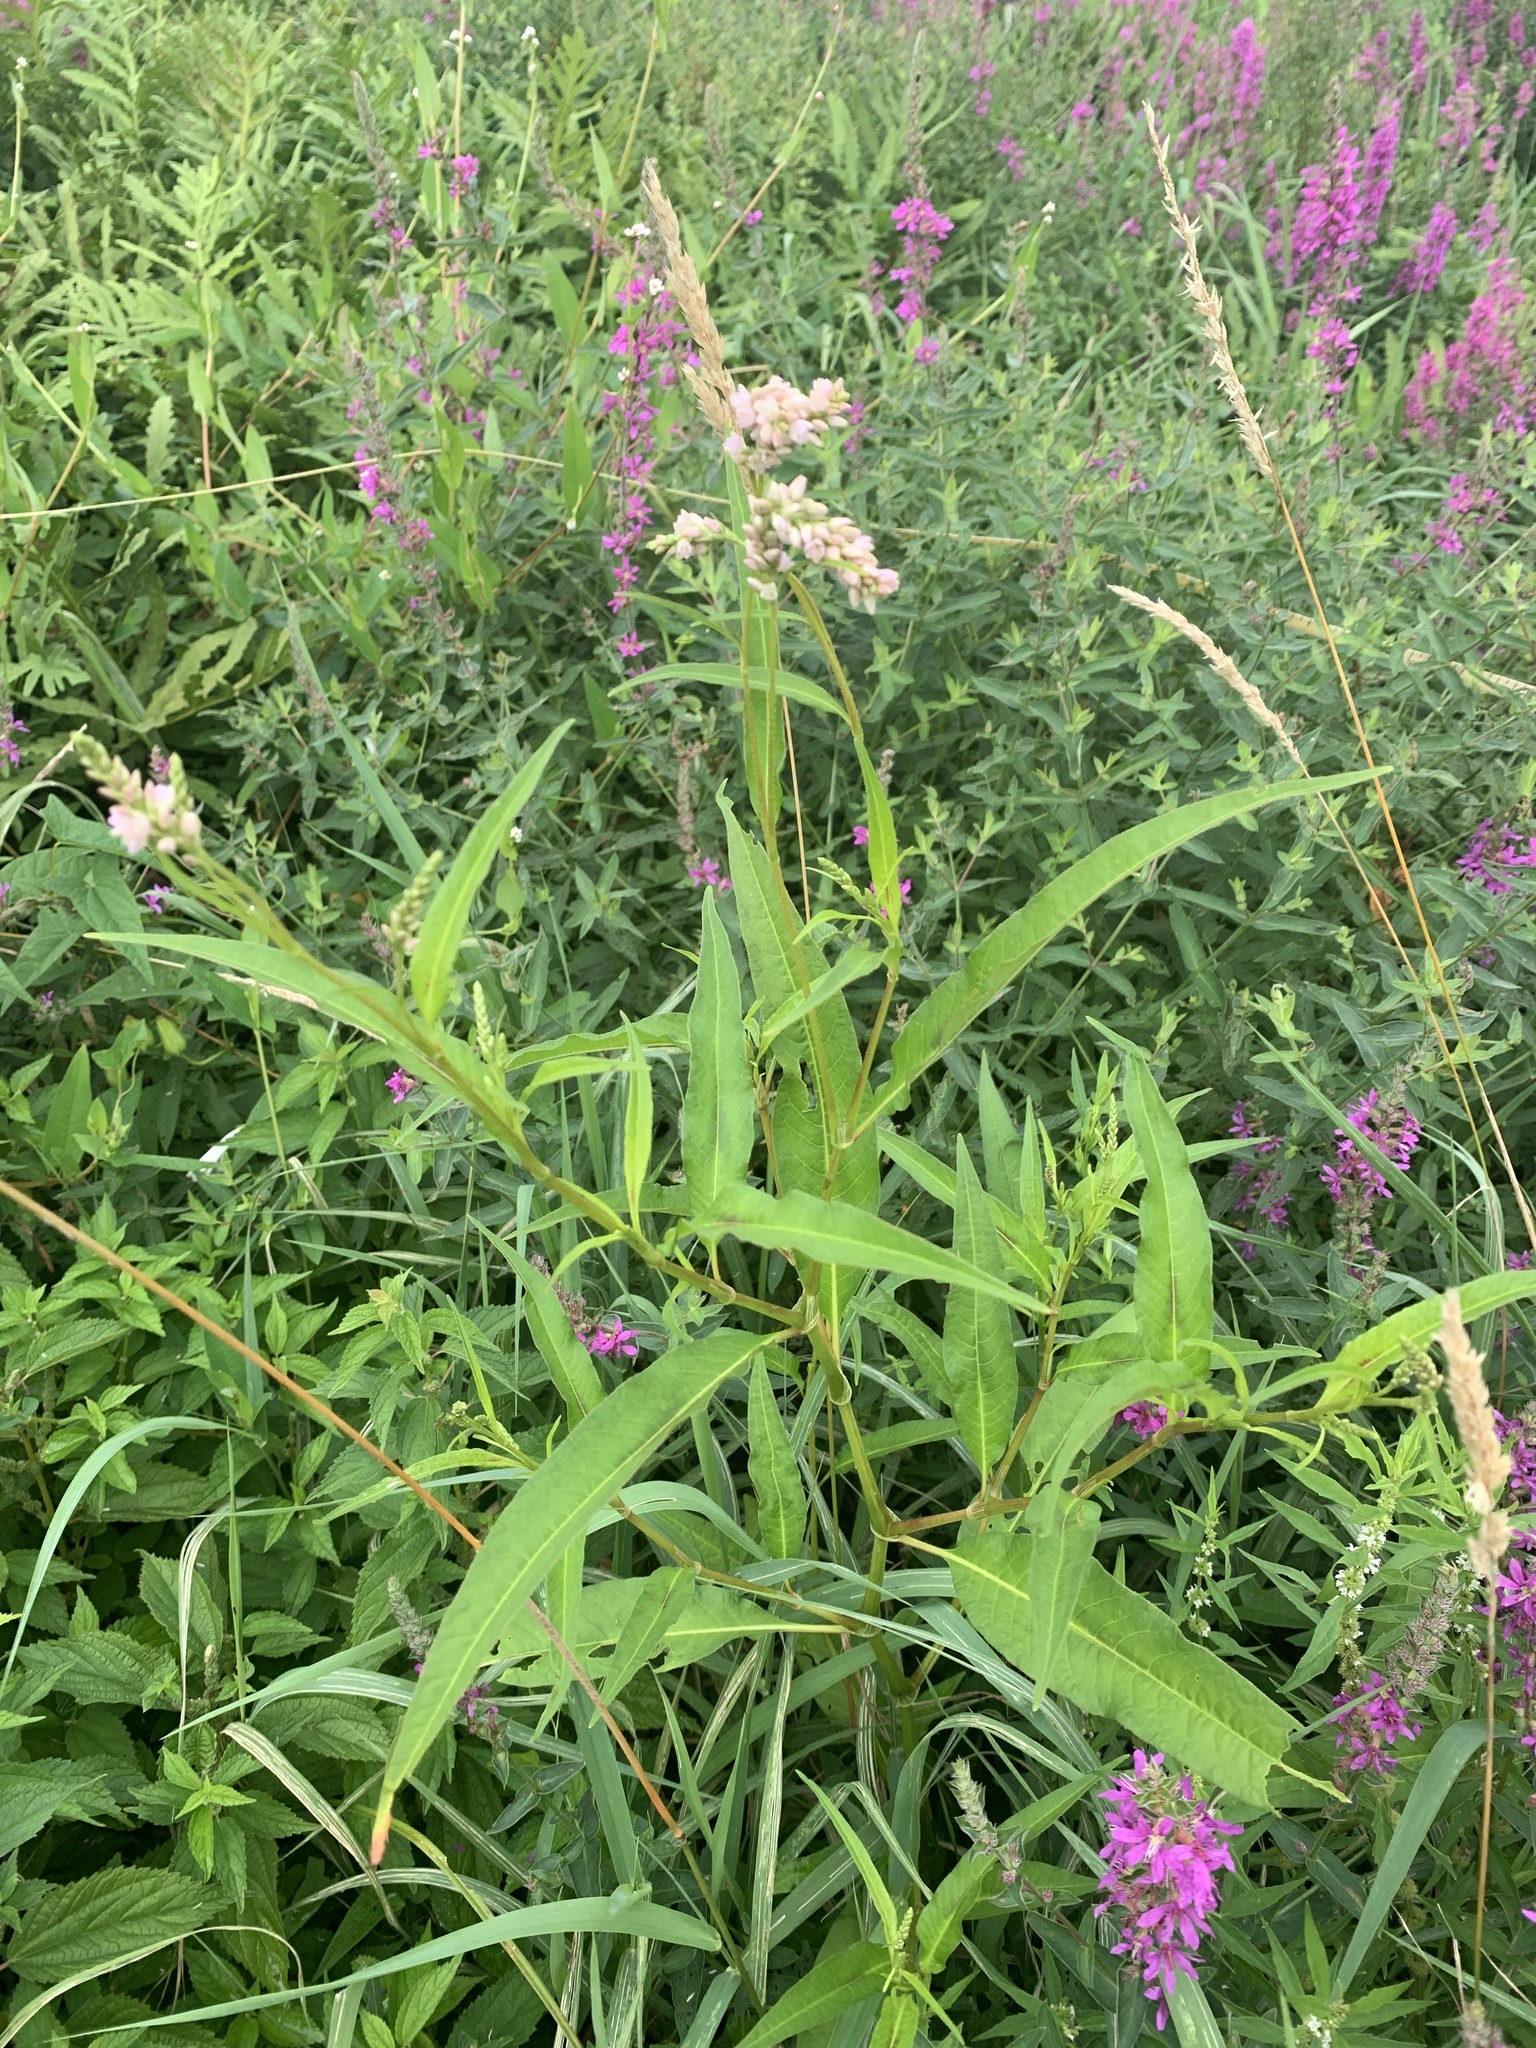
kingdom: Plantae
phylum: Tracheophyta
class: Magnoliopsida
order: Caryophyllales
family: Polygonaceae
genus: Persicaria
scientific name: Persicaria pensylvanica
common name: Pinkweed
